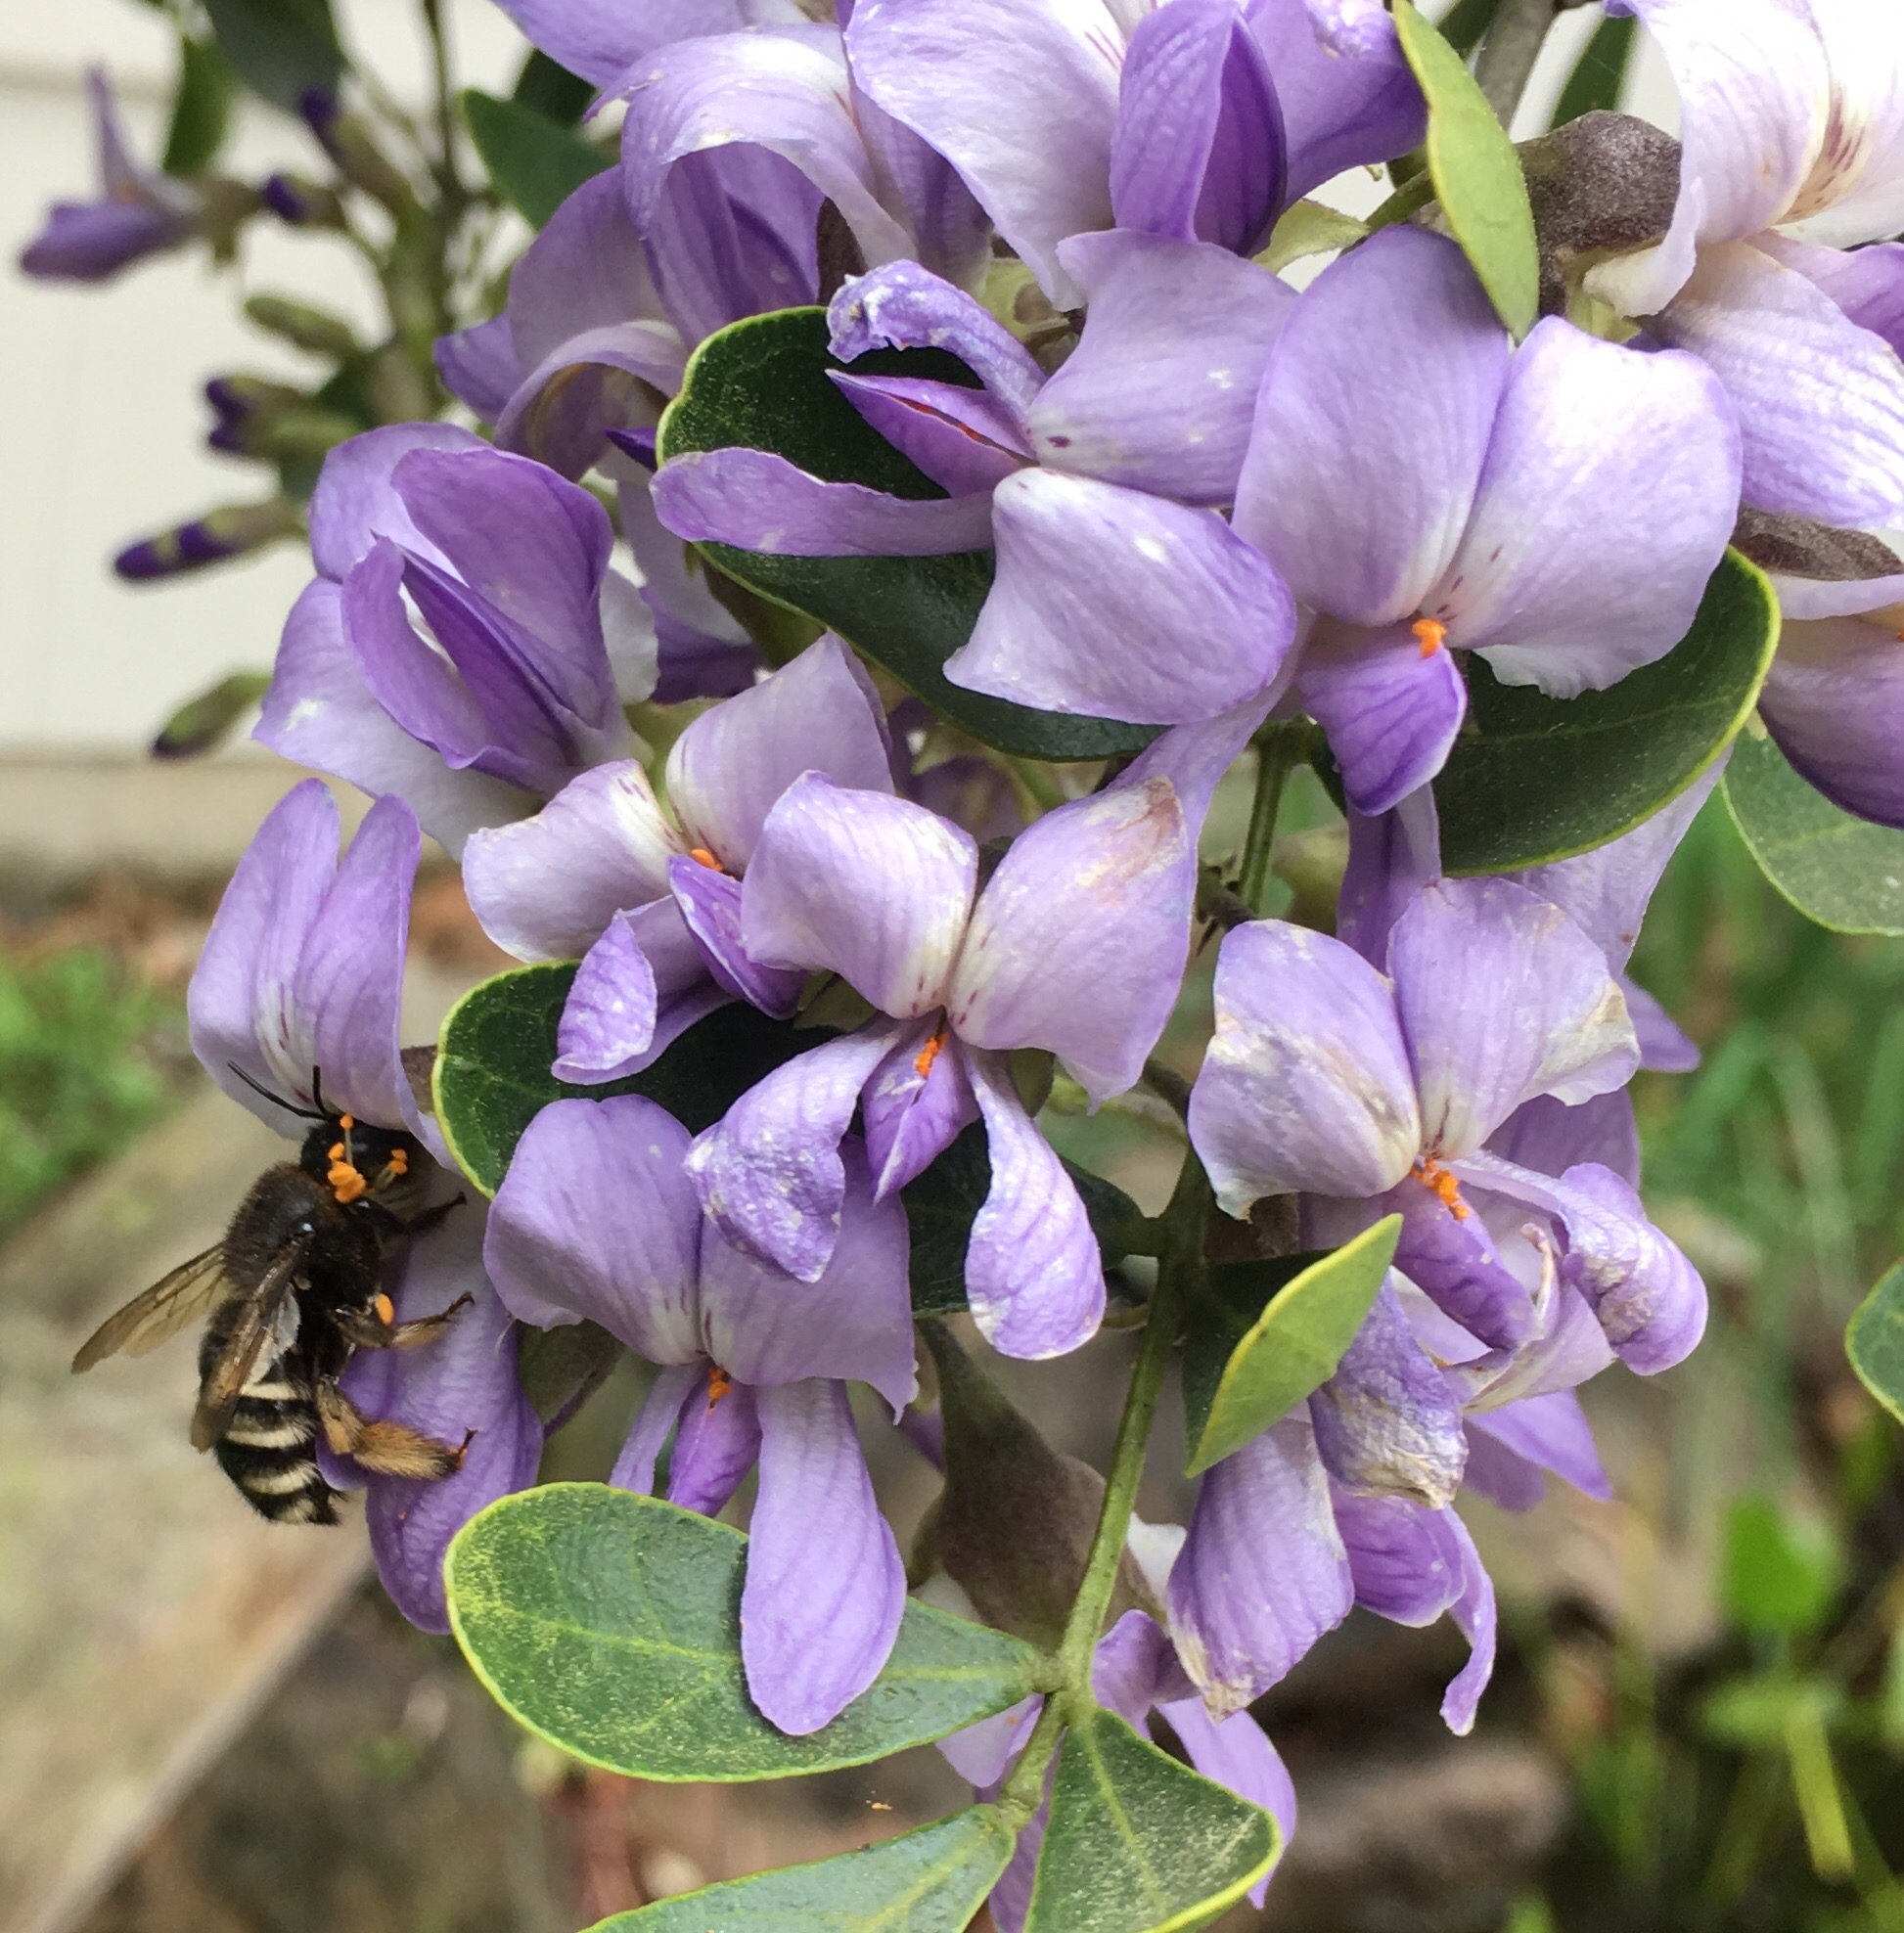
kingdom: Animalia
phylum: Arthropoda
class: Insecta
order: Hymenoptera
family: Apidae
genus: Xylocopa
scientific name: Xylocopa tabaniformis
